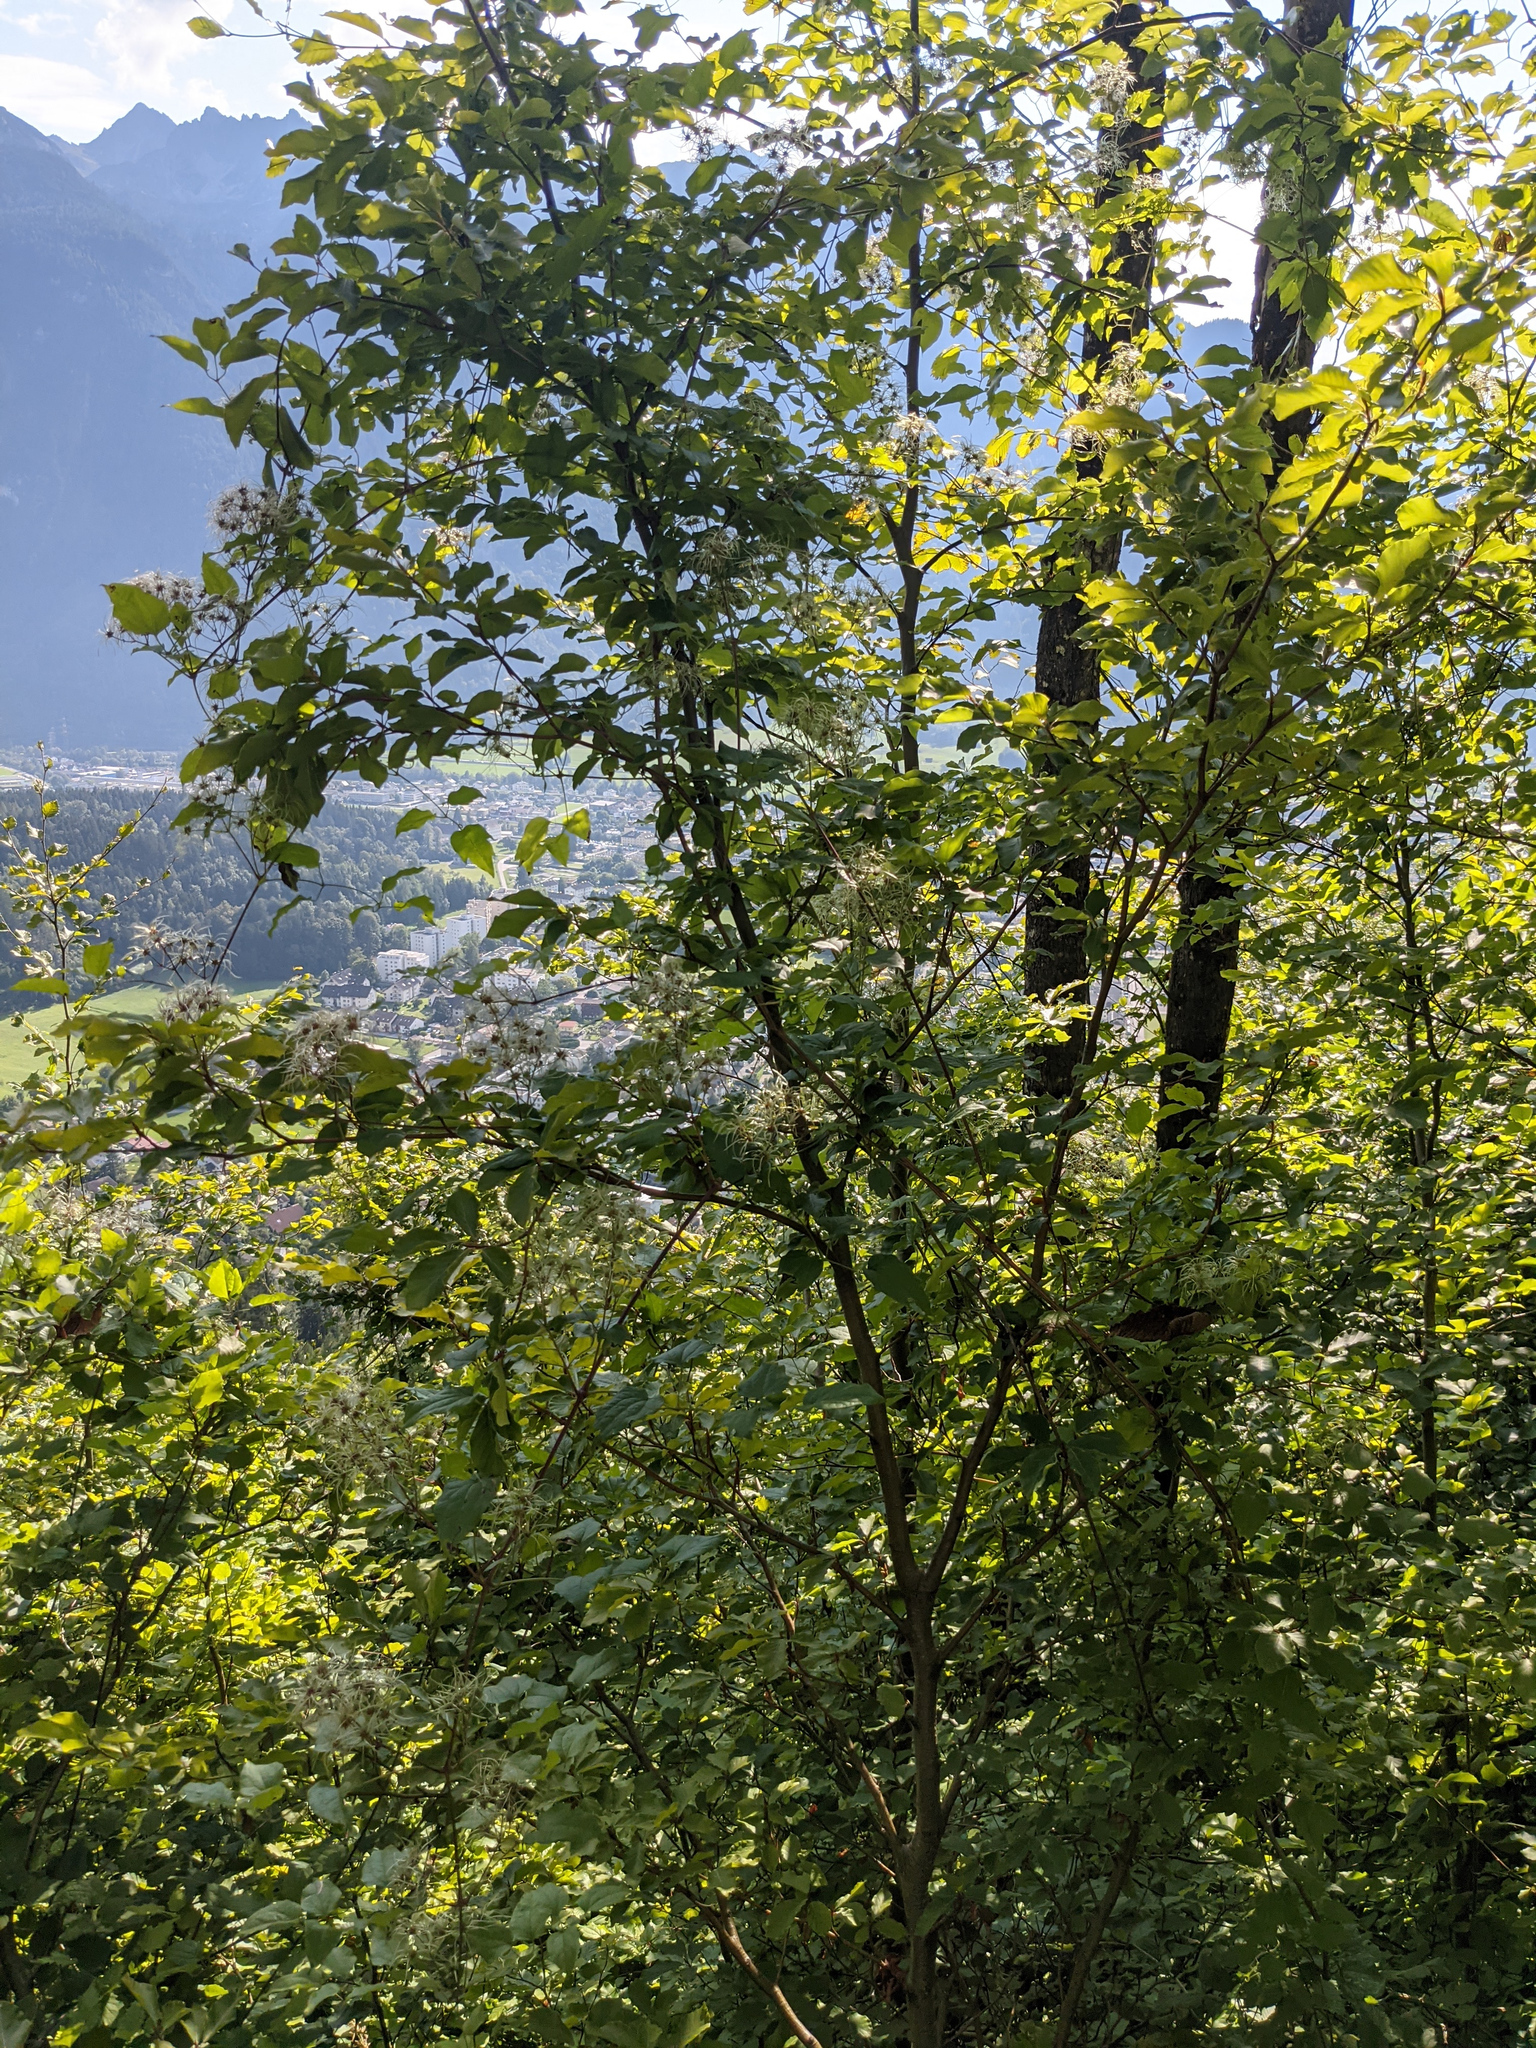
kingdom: Plantae
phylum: Tracheophyta
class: Magnoliopsida
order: Ranunculales
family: Ranunculaceae
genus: Clematis
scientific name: Clematis vitalba
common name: Evergreen clematis
